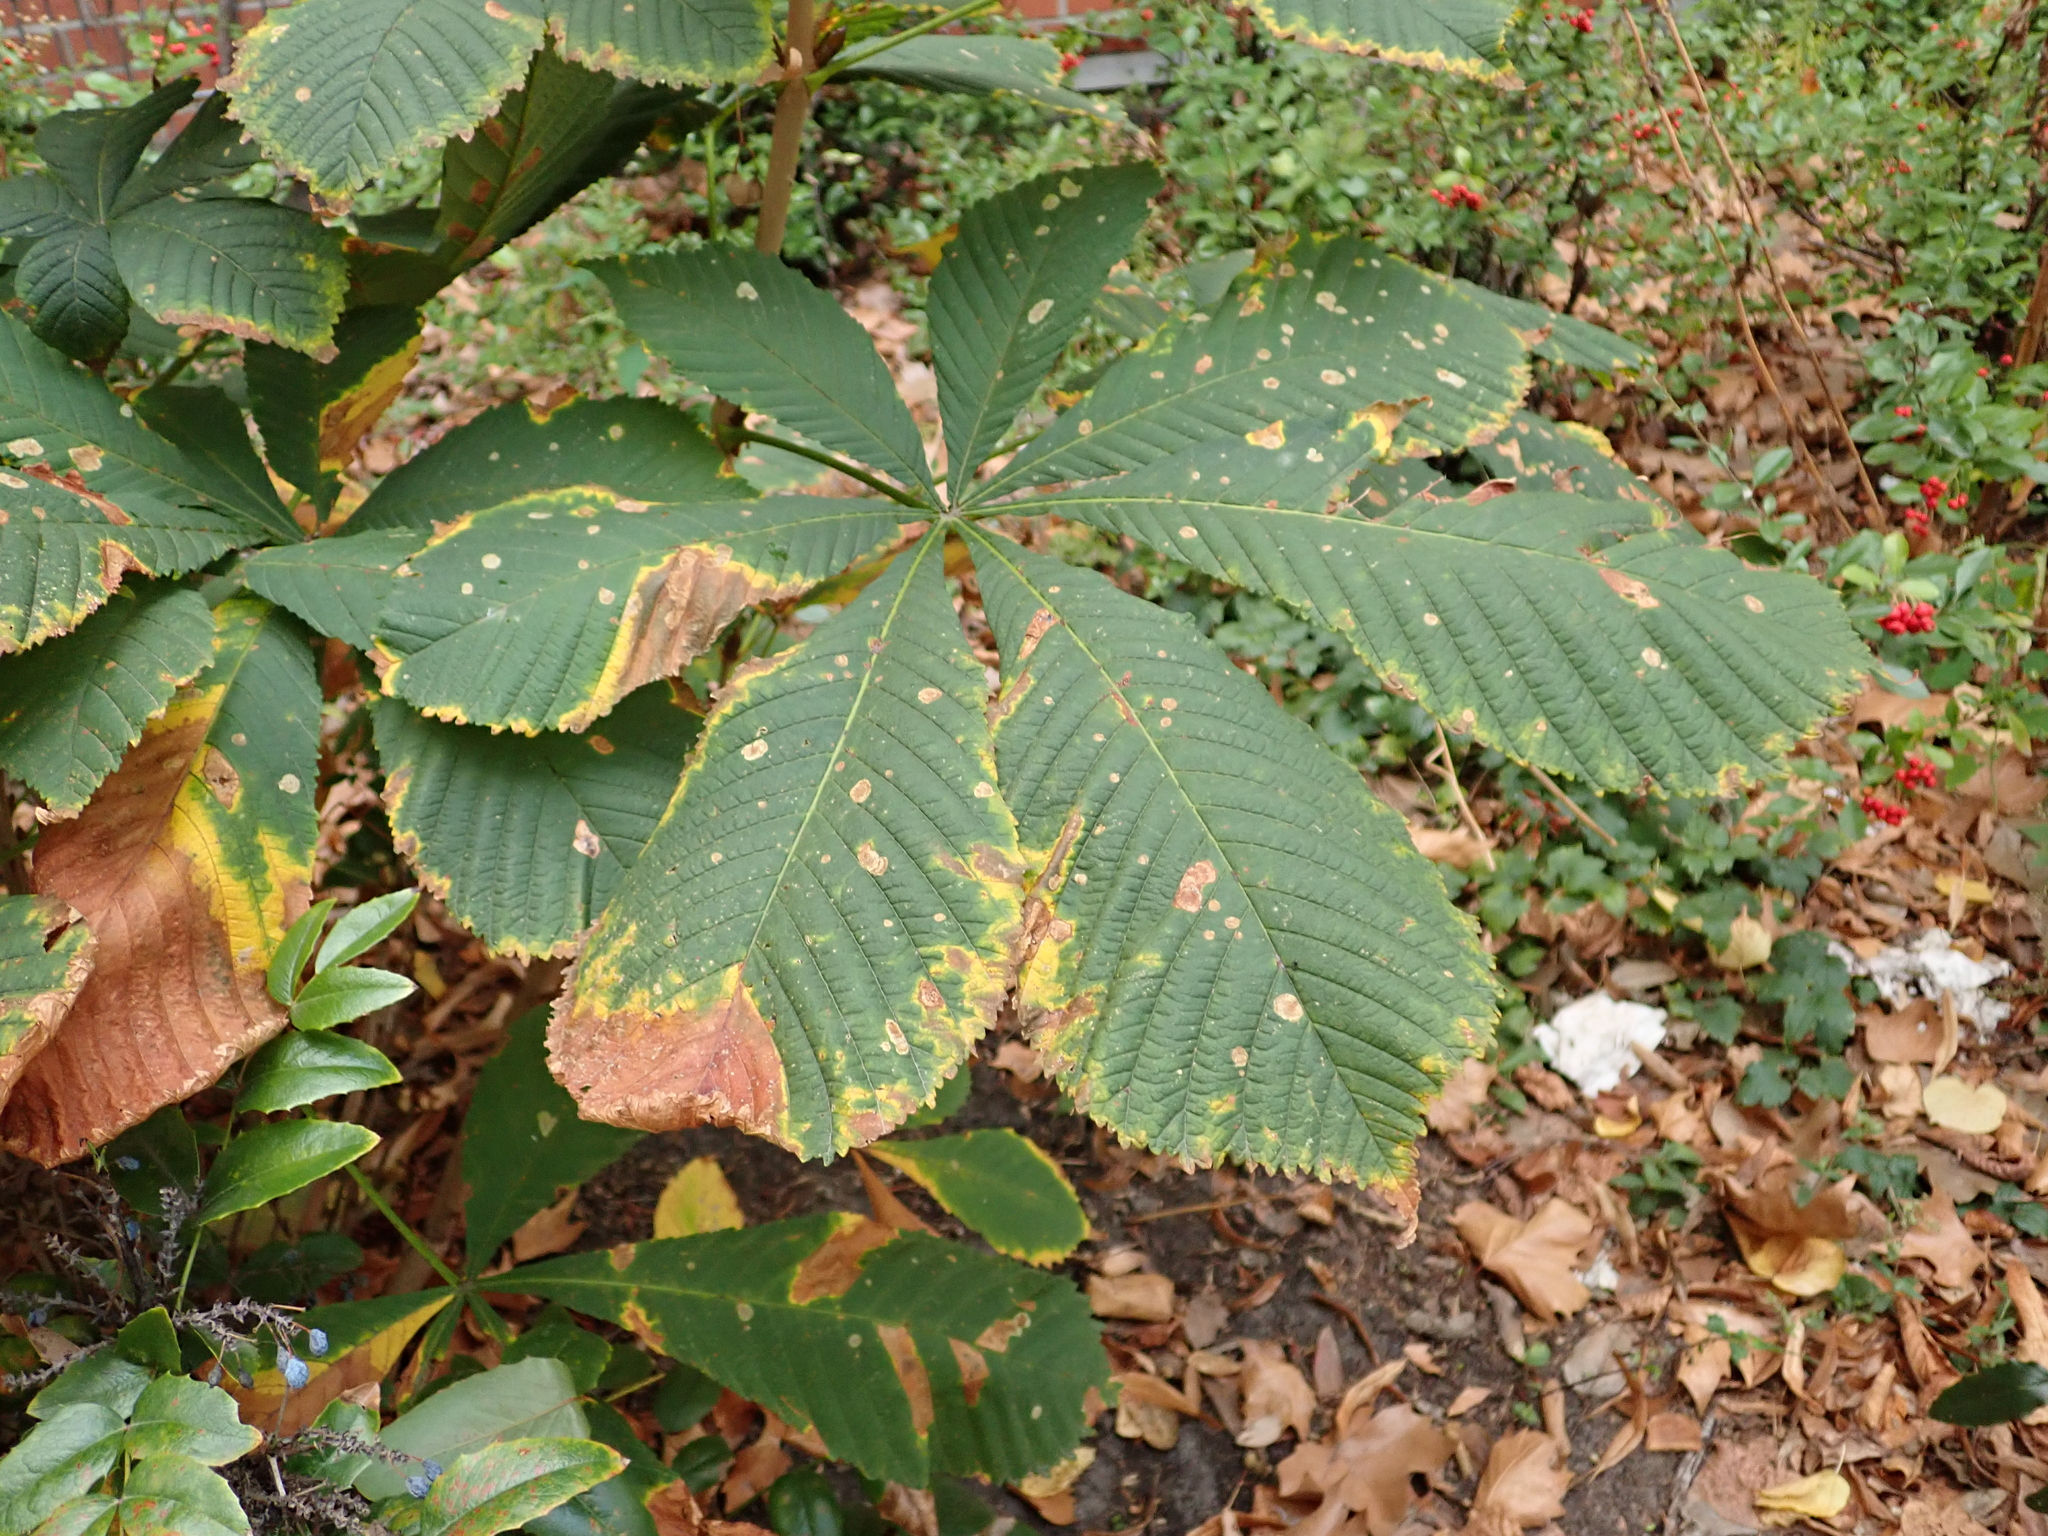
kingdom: Plantae
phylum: Tracheophyta
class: Magnoliopsida
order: Sapindales
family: Sapindaceae
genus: Aesculus
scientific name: Aesculus hippocastanum
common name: Horse-chestnut
